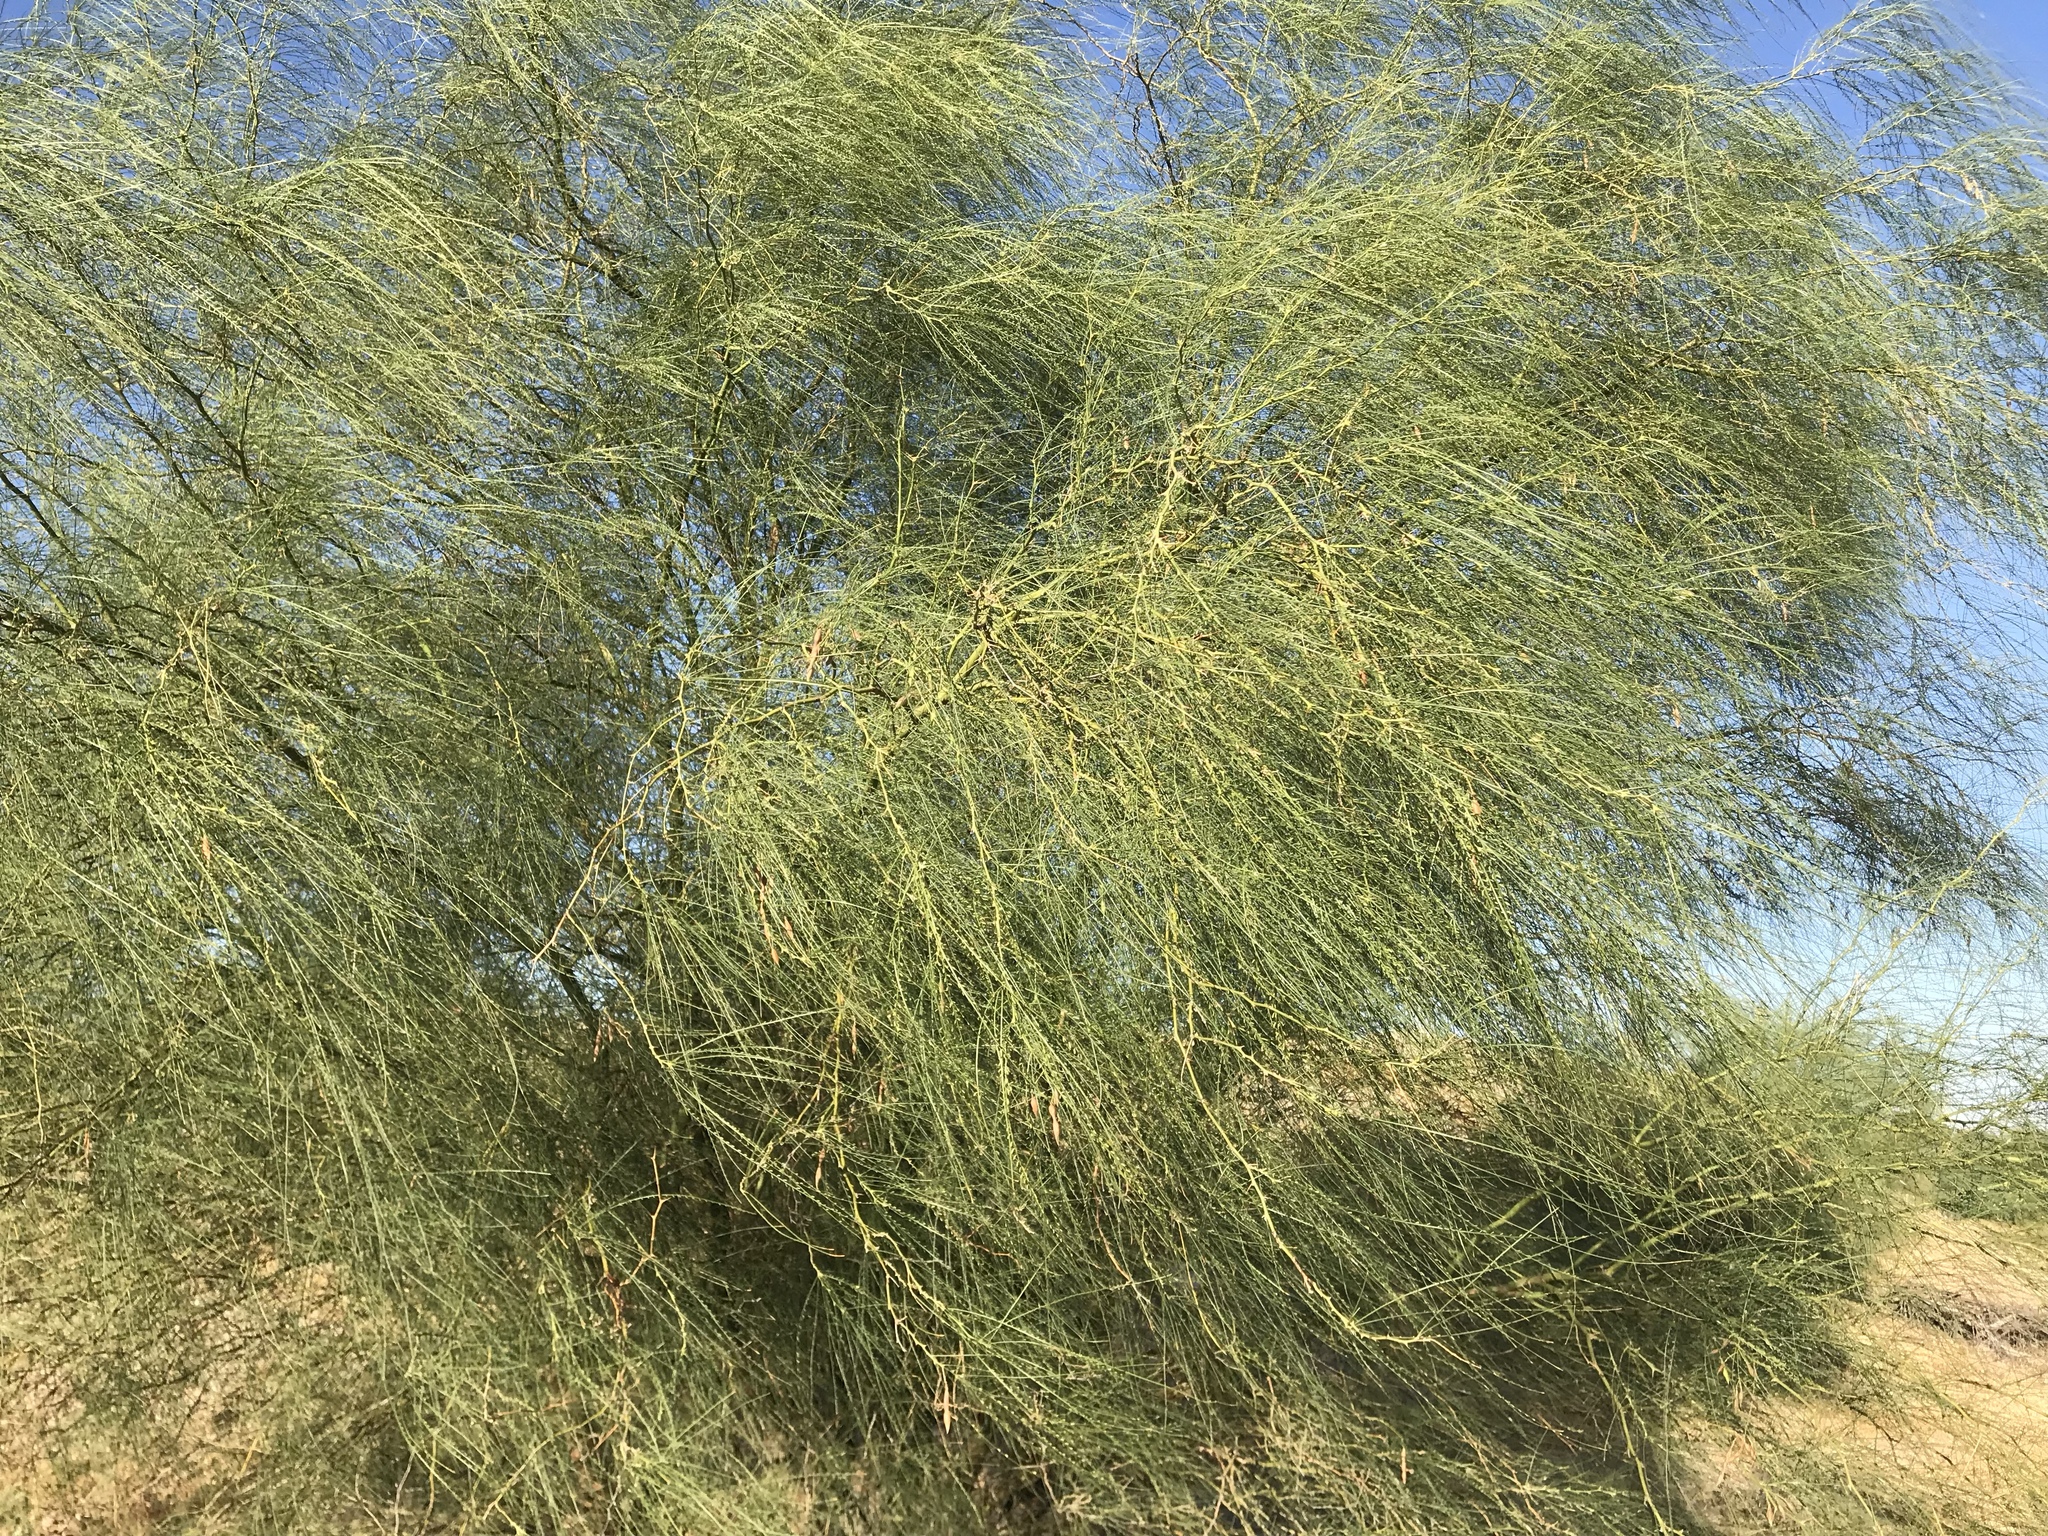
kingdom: Plantae
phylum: Tracheophyta
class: Magnoliopsida
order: Fabales
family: Fabaceae
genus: Parkinsonia
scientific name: Parkinsonia aculeata
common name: Jerusalem thorn
